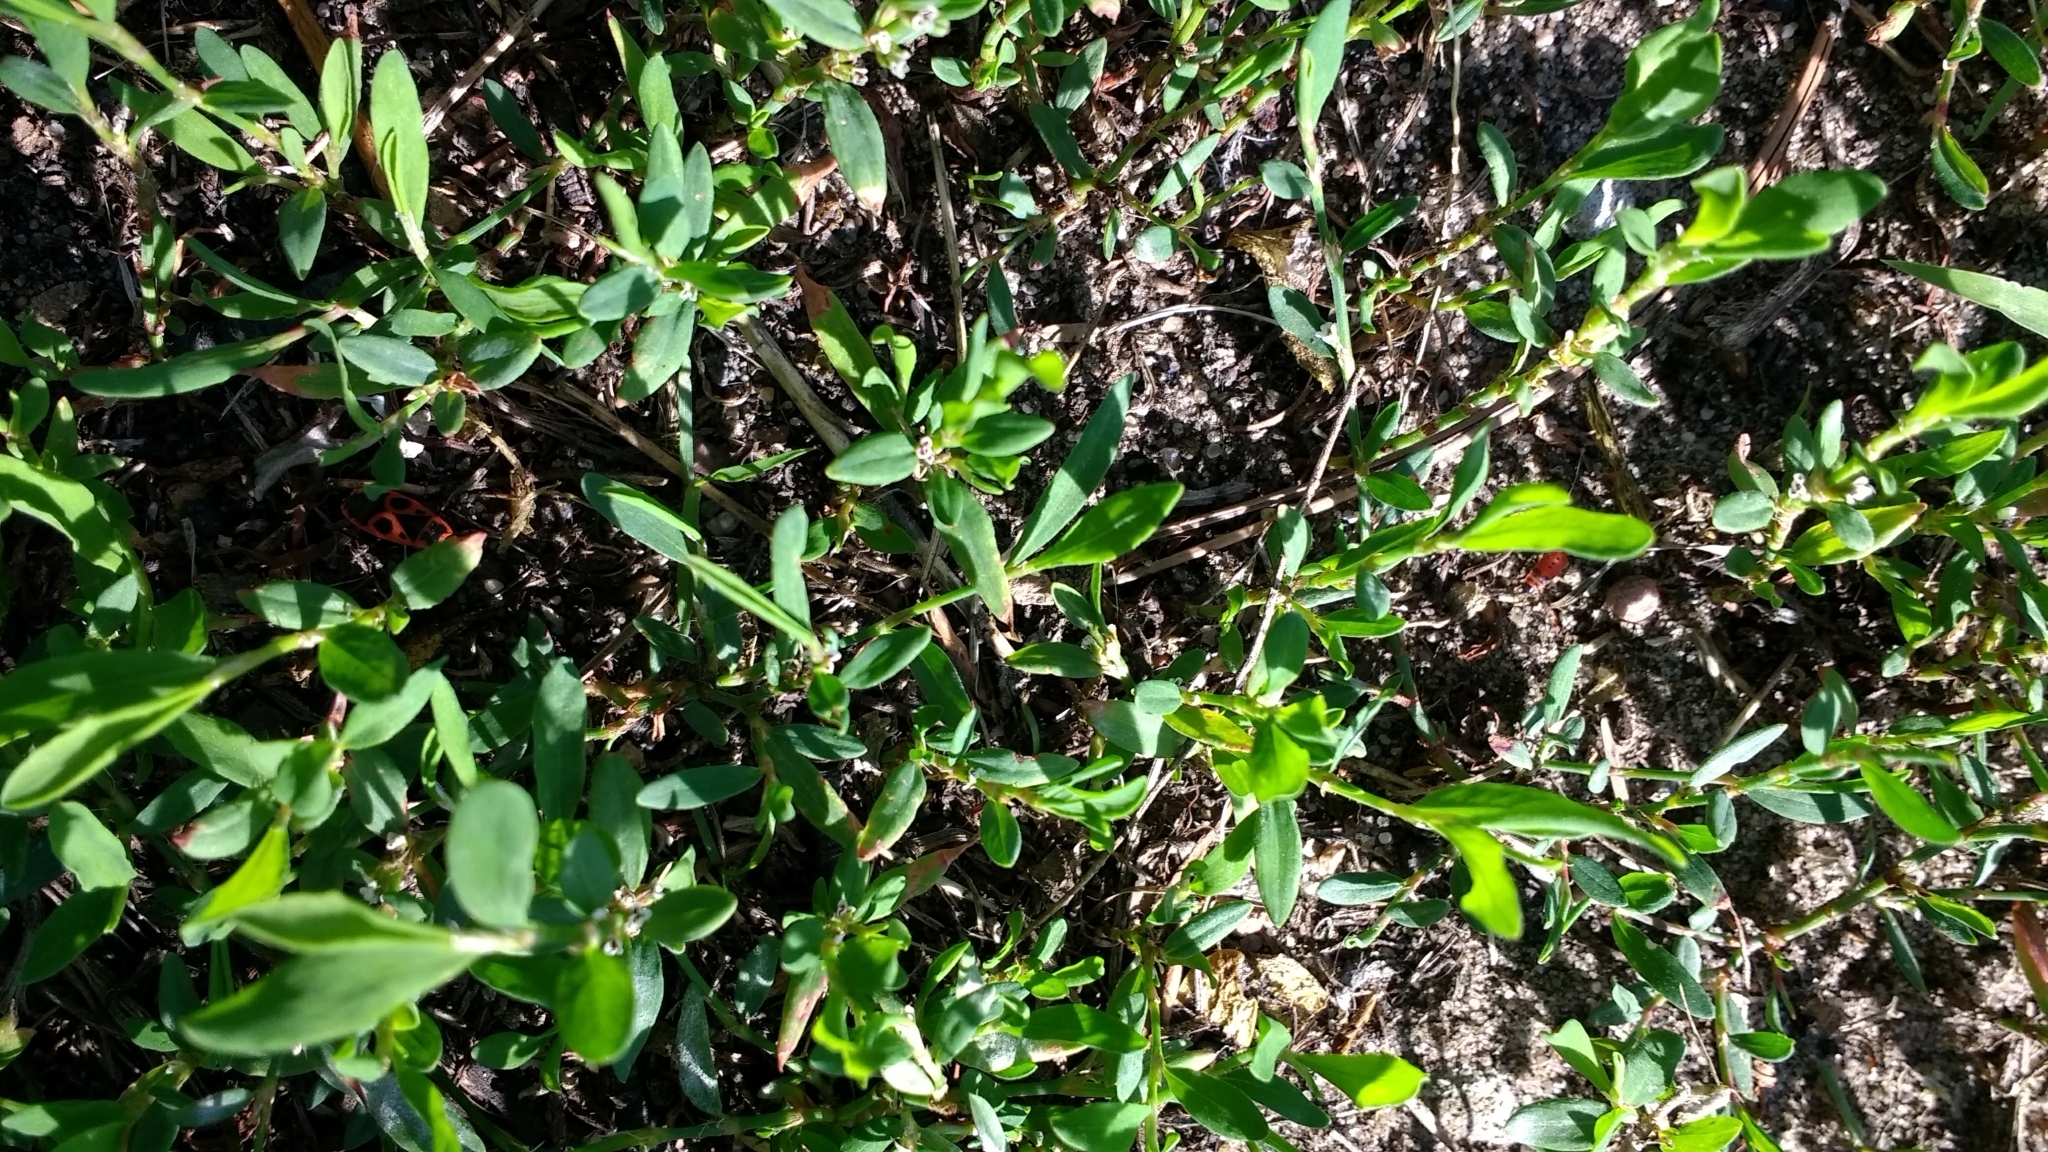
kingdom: Plantae
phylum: Tracheophyta
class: Magnoliopsida
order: Caryophyllales
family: Polygonaceae
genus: Polygonum
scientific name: Polygonum aviculare
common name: Prostrate knotweed
